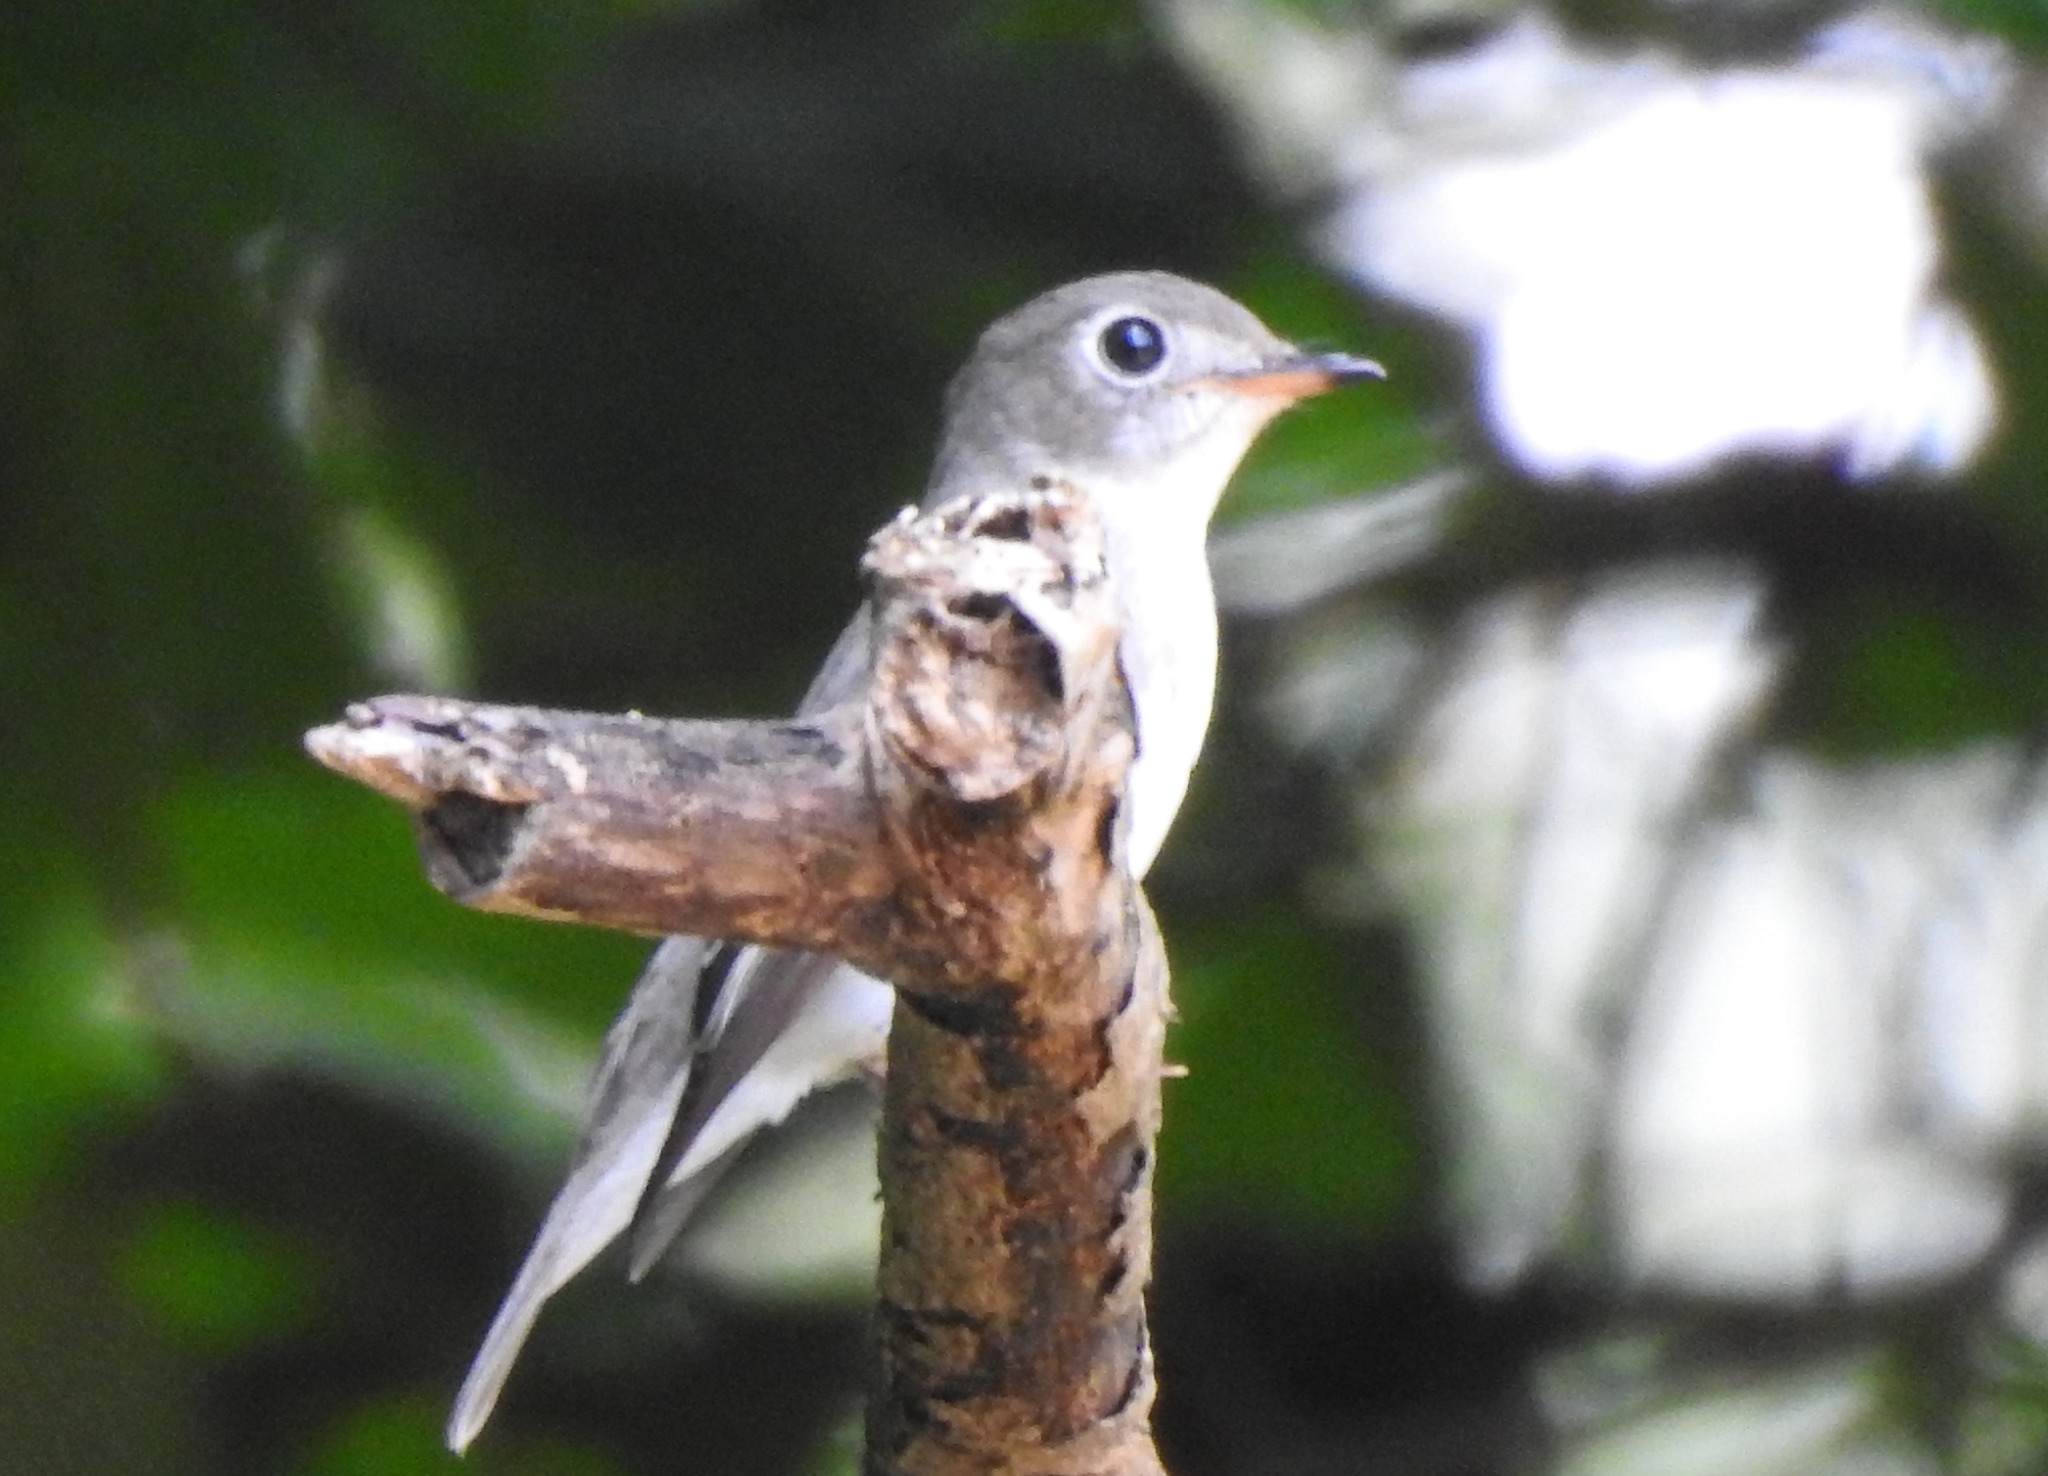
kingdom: Animalia
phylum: Chordata
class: Aves
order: Passeriformes
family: Muscicapidae
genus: Muscicapa
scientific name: Muscicapa latirostris
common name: Asian brown flycatcher
